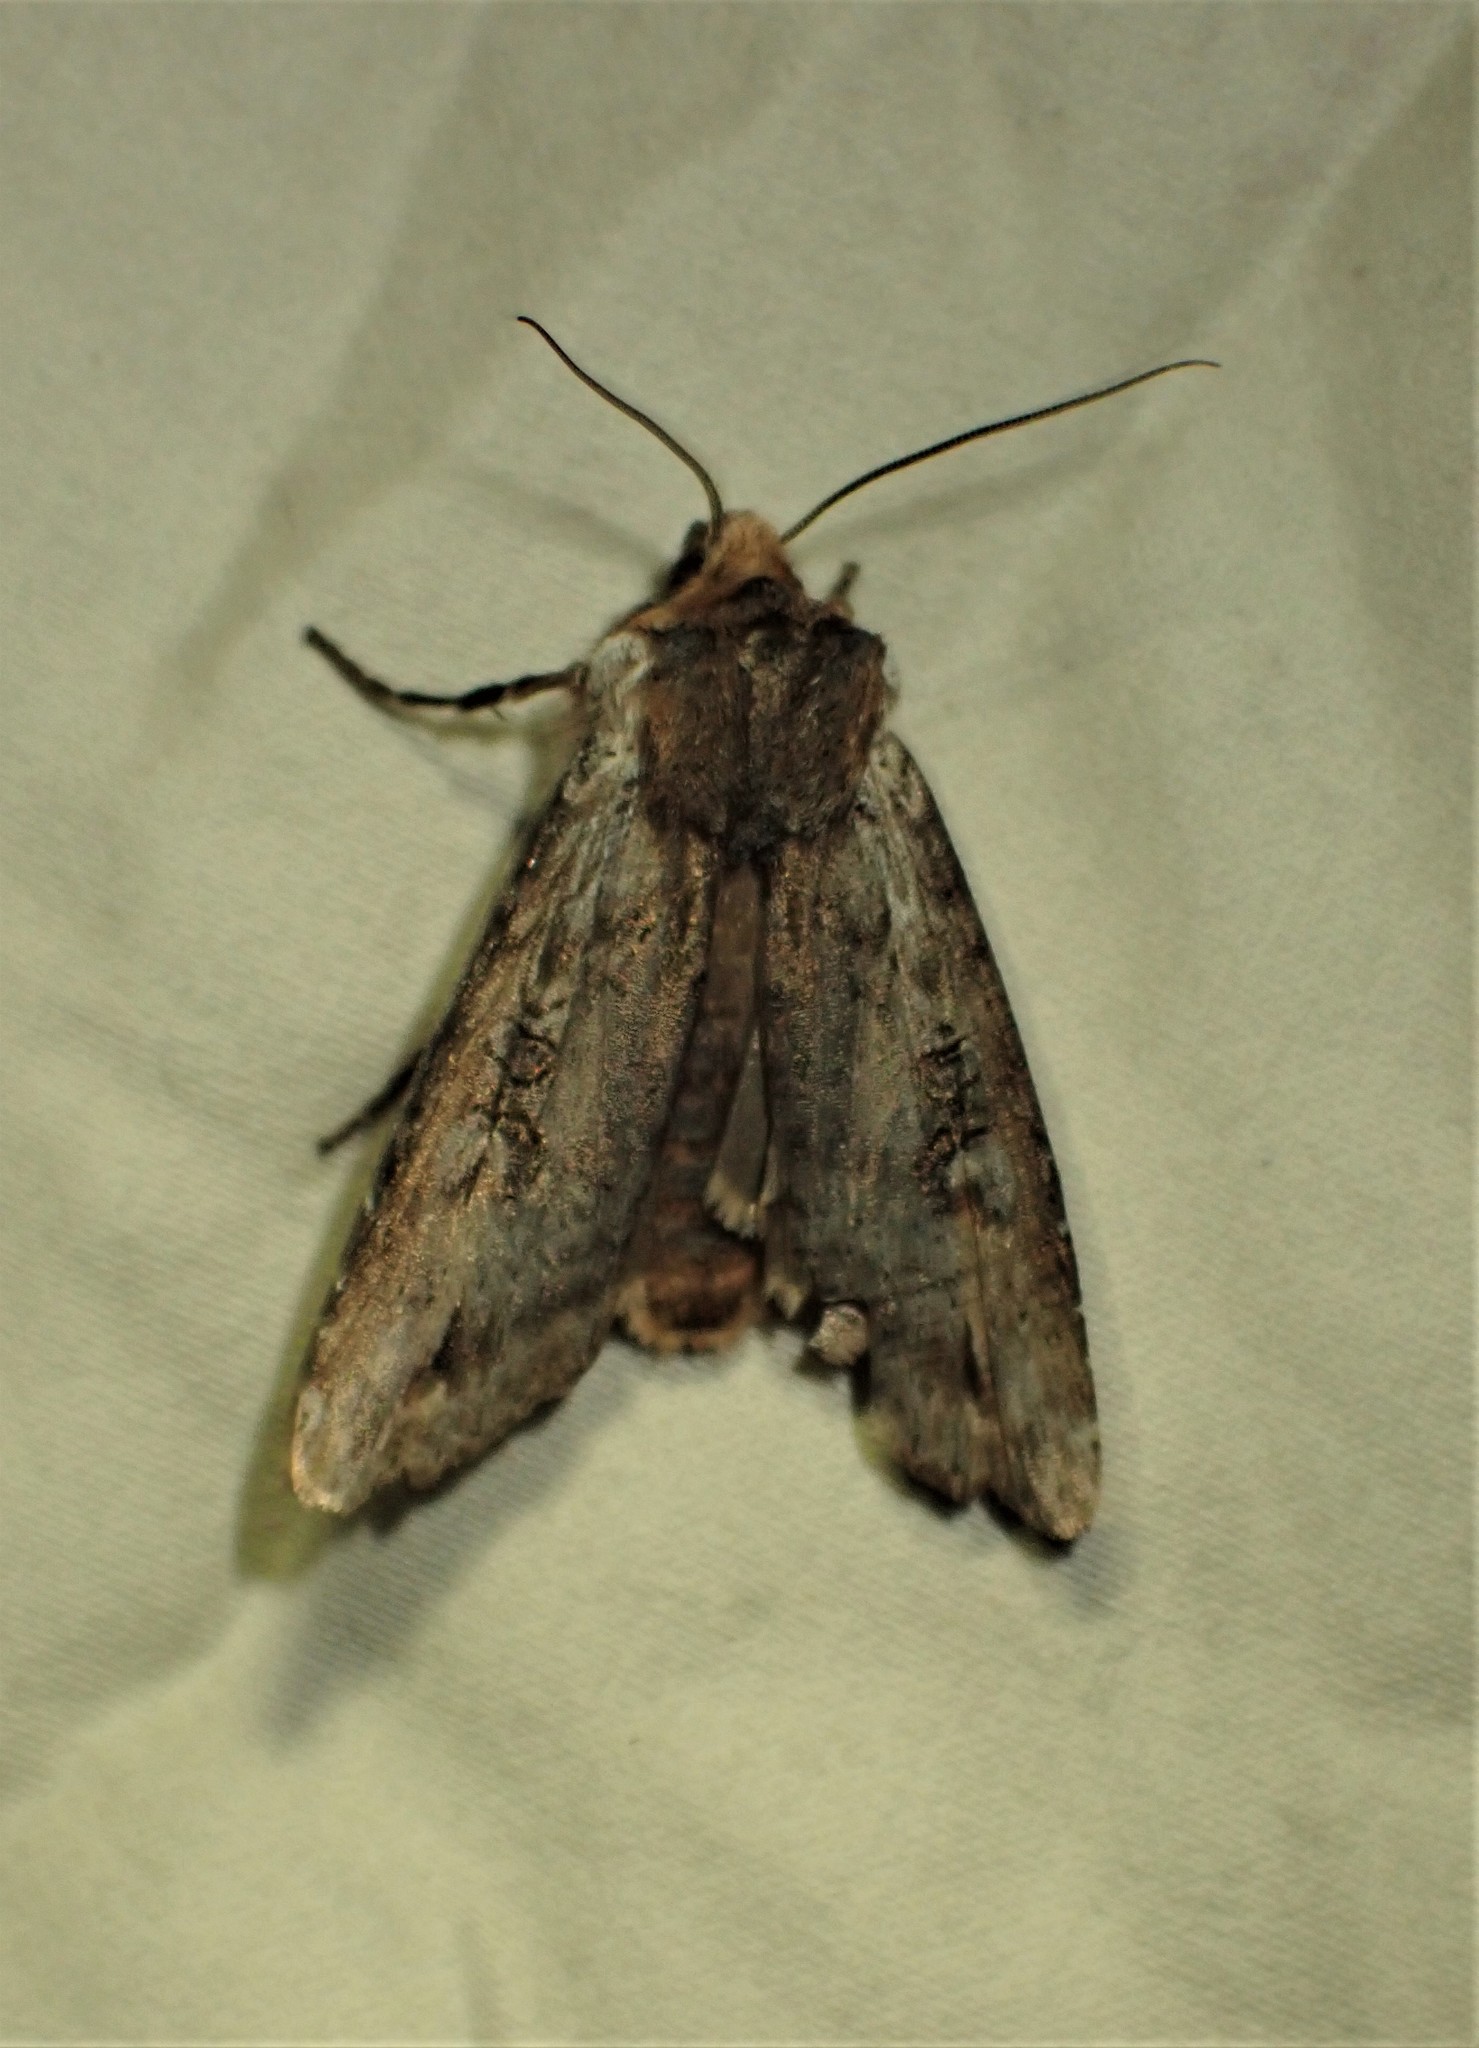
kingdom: Animalia
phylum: Arthropoda
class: Insecta
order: Lepidoptera
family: Noctuidae
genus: Xylena
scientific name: Xylena thoracica
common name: Acadian swordgrass moth
